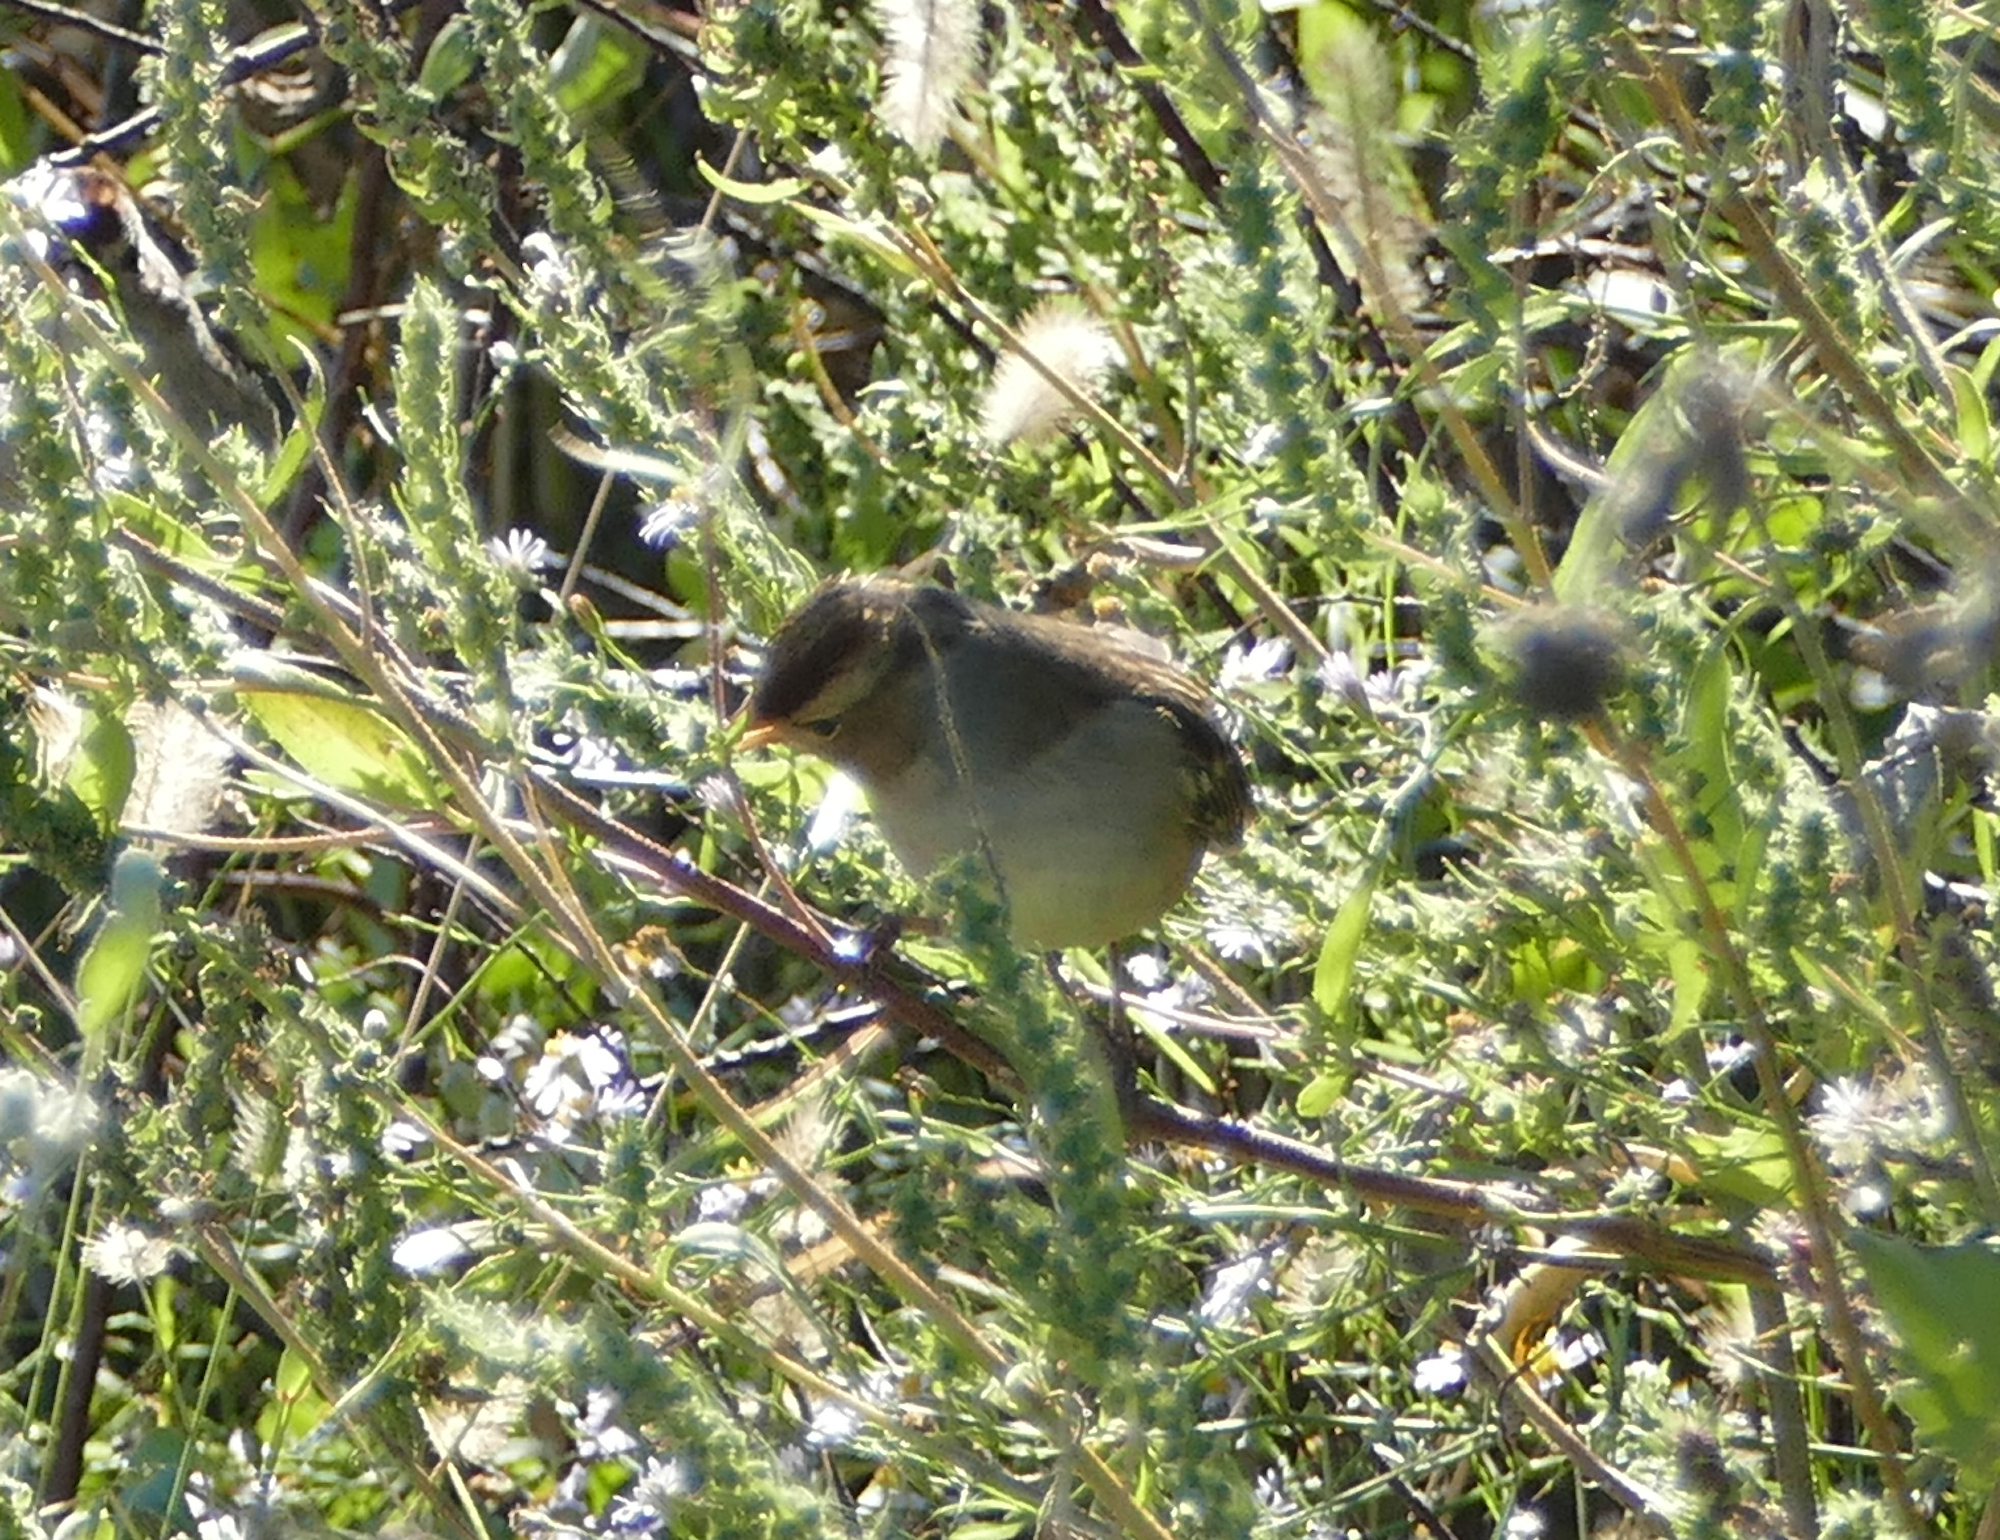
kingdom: Animalia
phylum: Chordata
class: Aves
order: Passeriformes
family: Passerellidae
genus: Zonotrichia
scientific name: Zonotrichia leucophrys
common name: White-crowned sparrow
